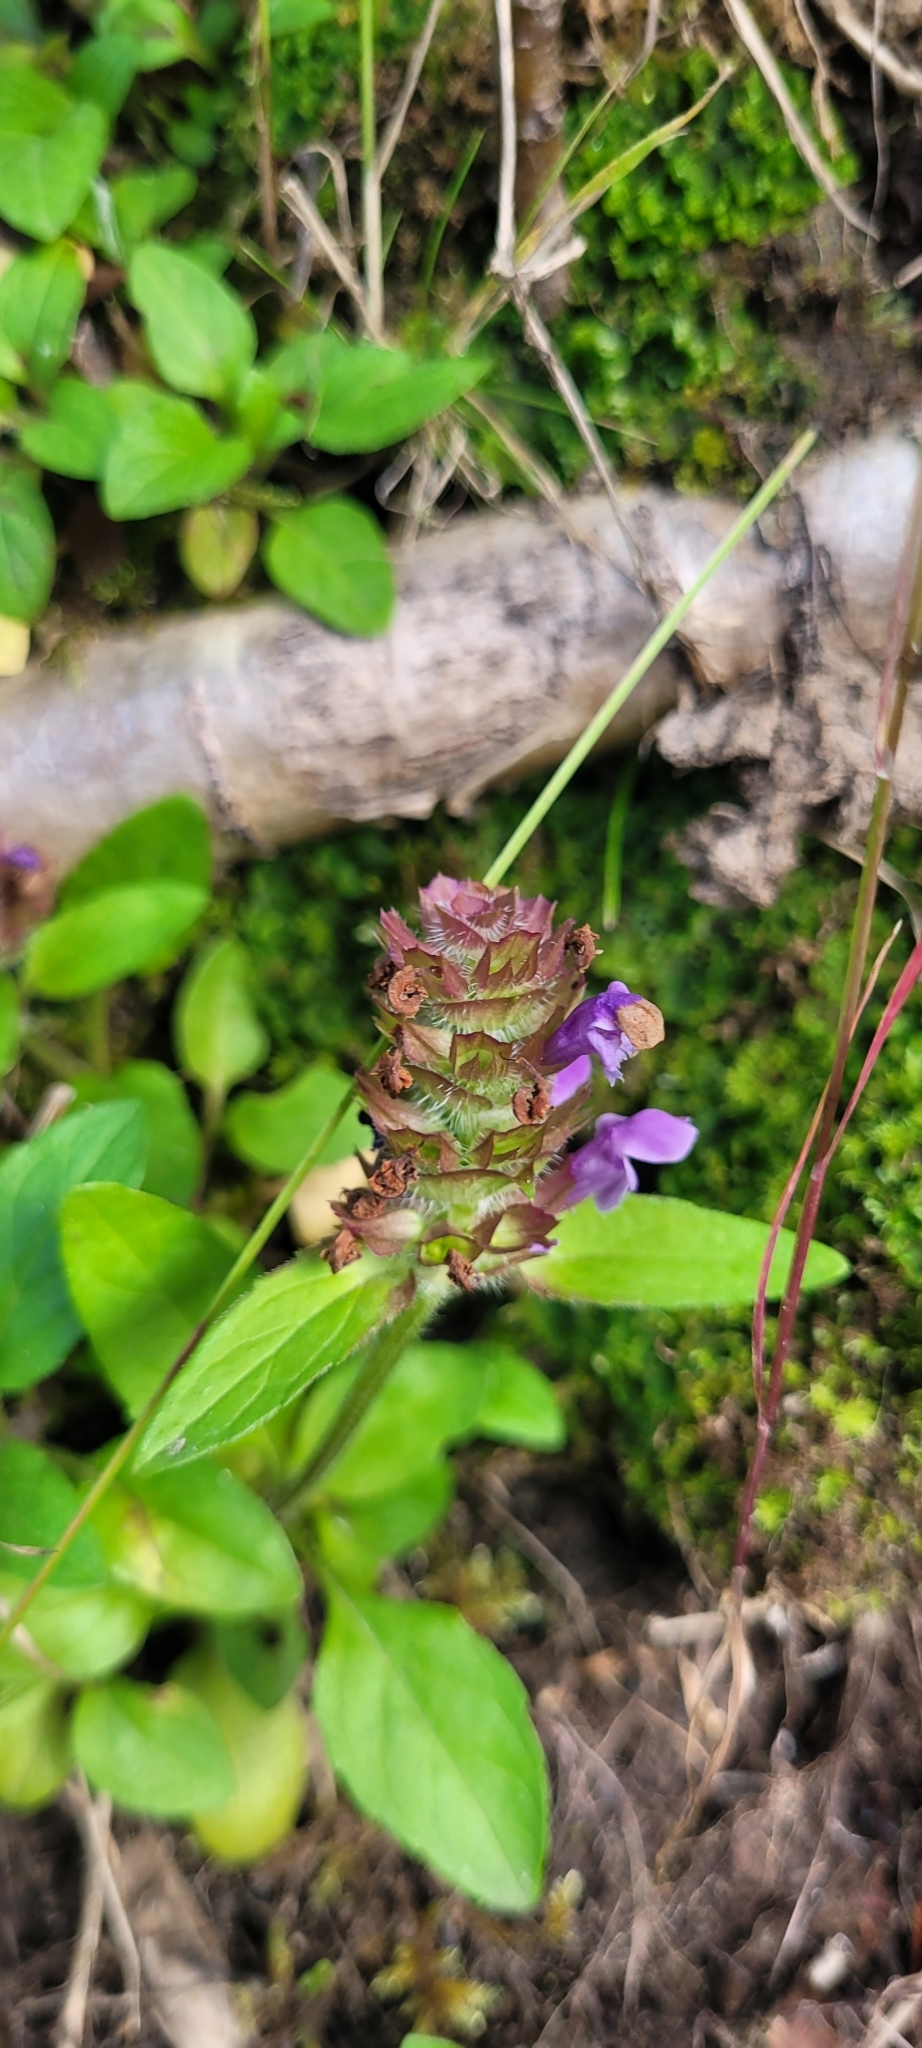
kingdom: Plantae
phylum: Tracheophyta
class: Magnoliopsida
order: Lamiales
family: Lamiaceae
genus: Prunella
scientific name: Prunella vulgaris
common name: Heal-all
